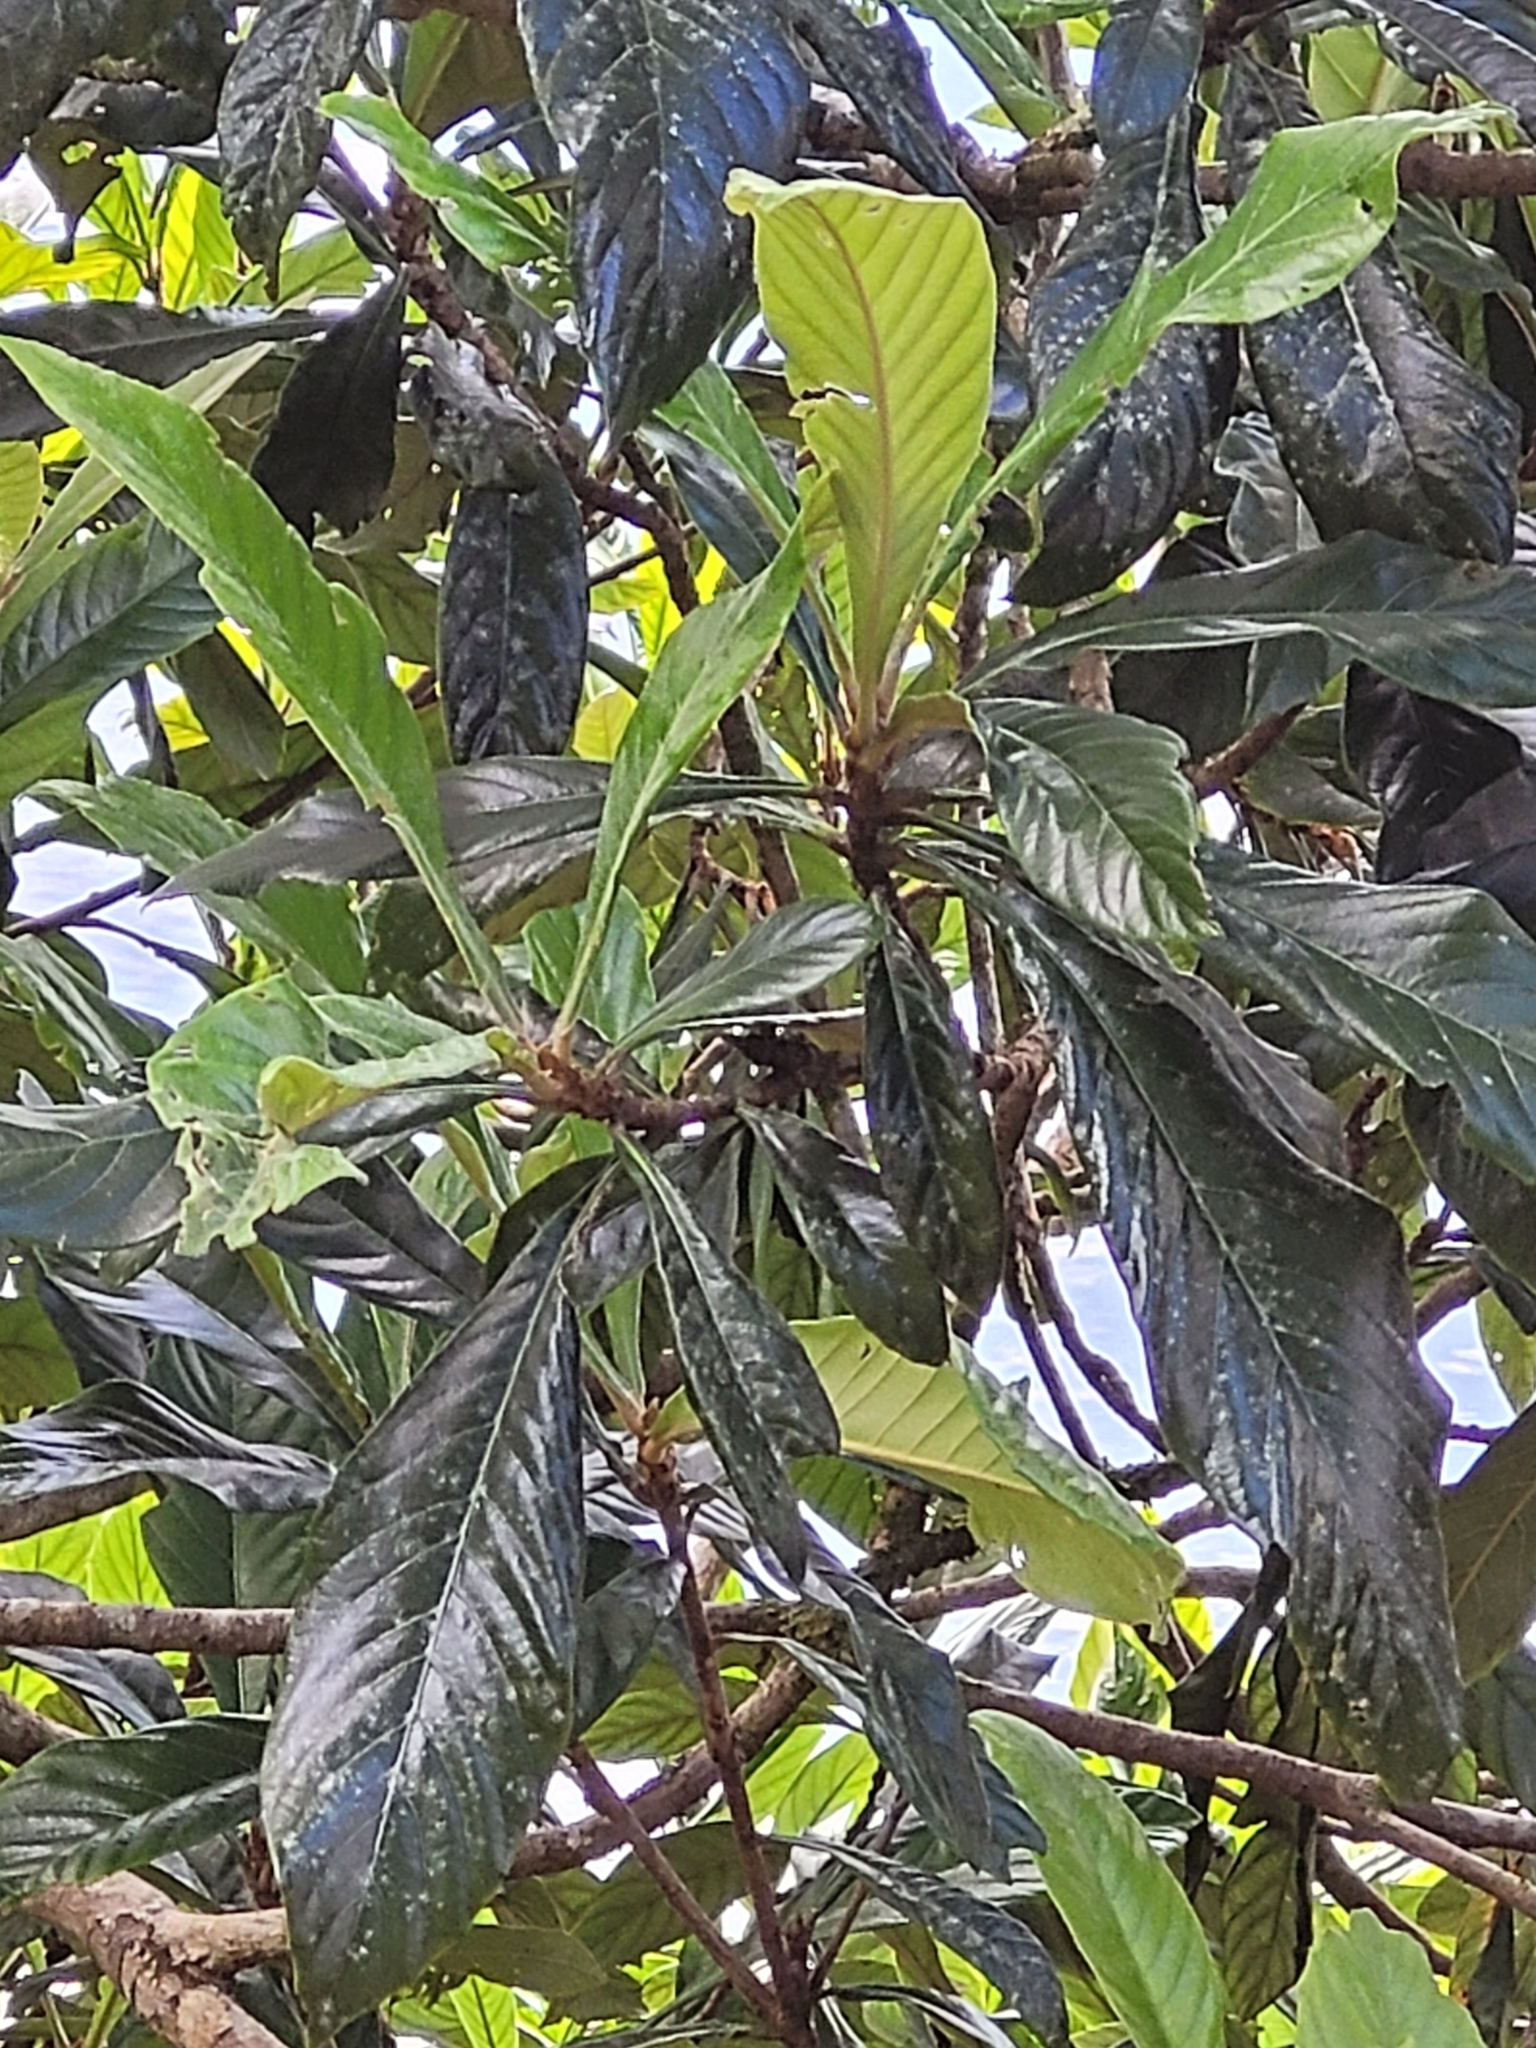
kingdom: Plantae
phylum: Tracheophyta
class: Magnoliopsida
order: Rosales
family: Rosaceae
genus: Rhaphiolepis
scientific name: Rhaphiolepis bibas
